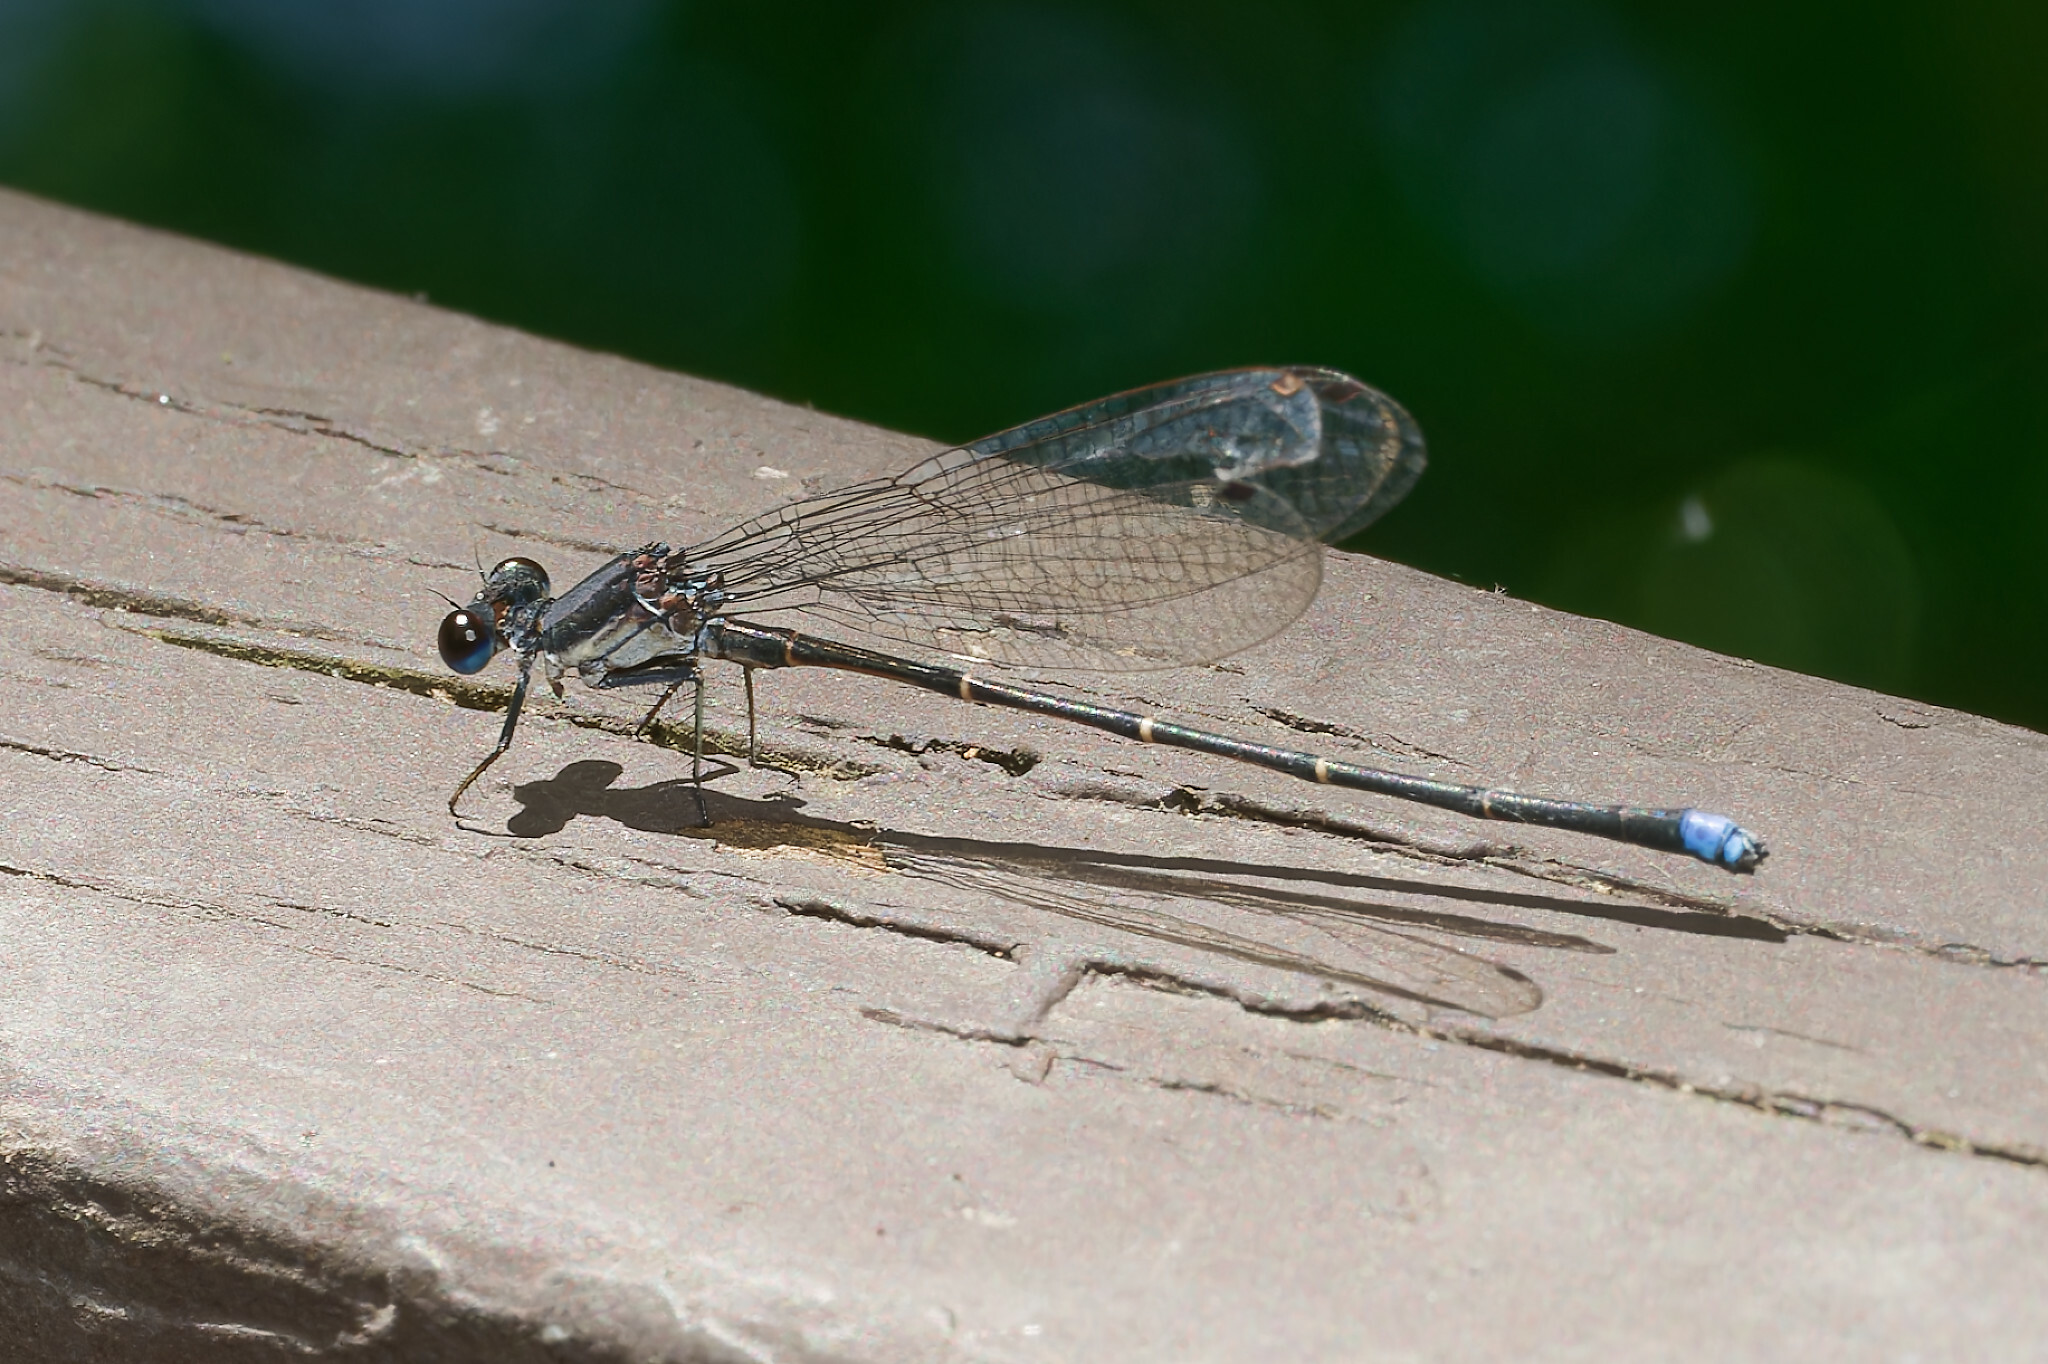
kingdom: Animalia
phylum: Arthropoda
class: Insecta
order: Odonata
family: Coenagrionidae
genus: Argia
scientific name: Argia tibialis
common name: Blue-tipped dancer
